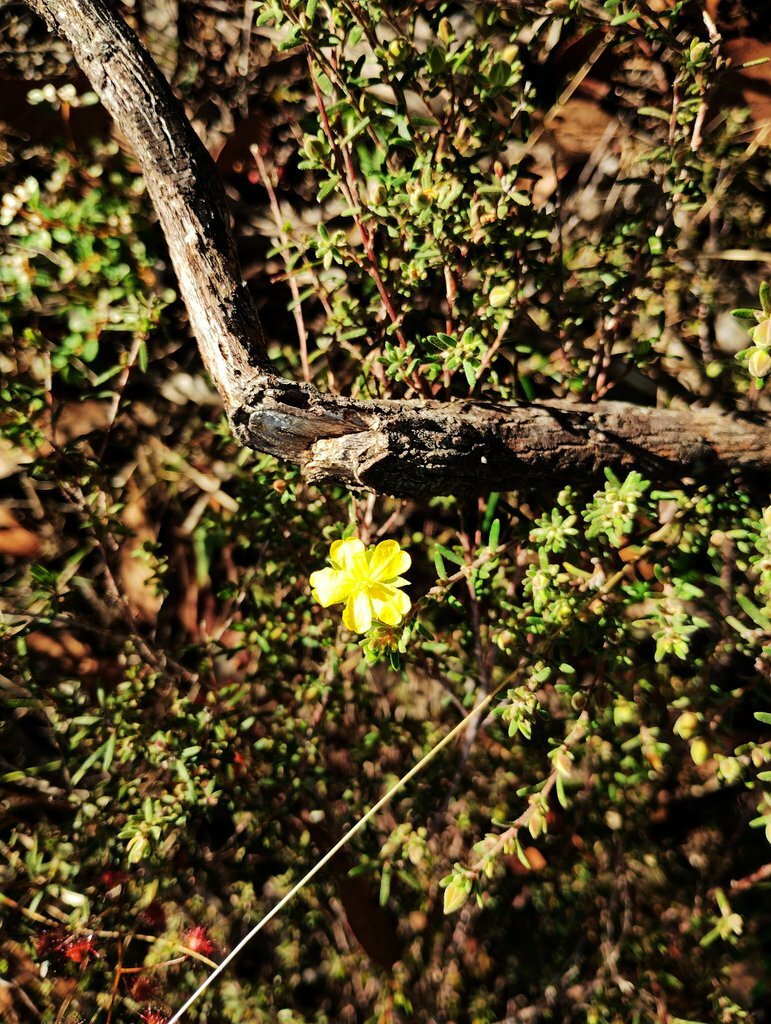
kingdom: Plantae
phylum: Tracheophyta
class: Magnoliopsida
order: Dilleniales
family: Dilleniaceae
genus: Hibbertia
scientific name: Hibbertia riparia
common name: Erect guinea-flower
